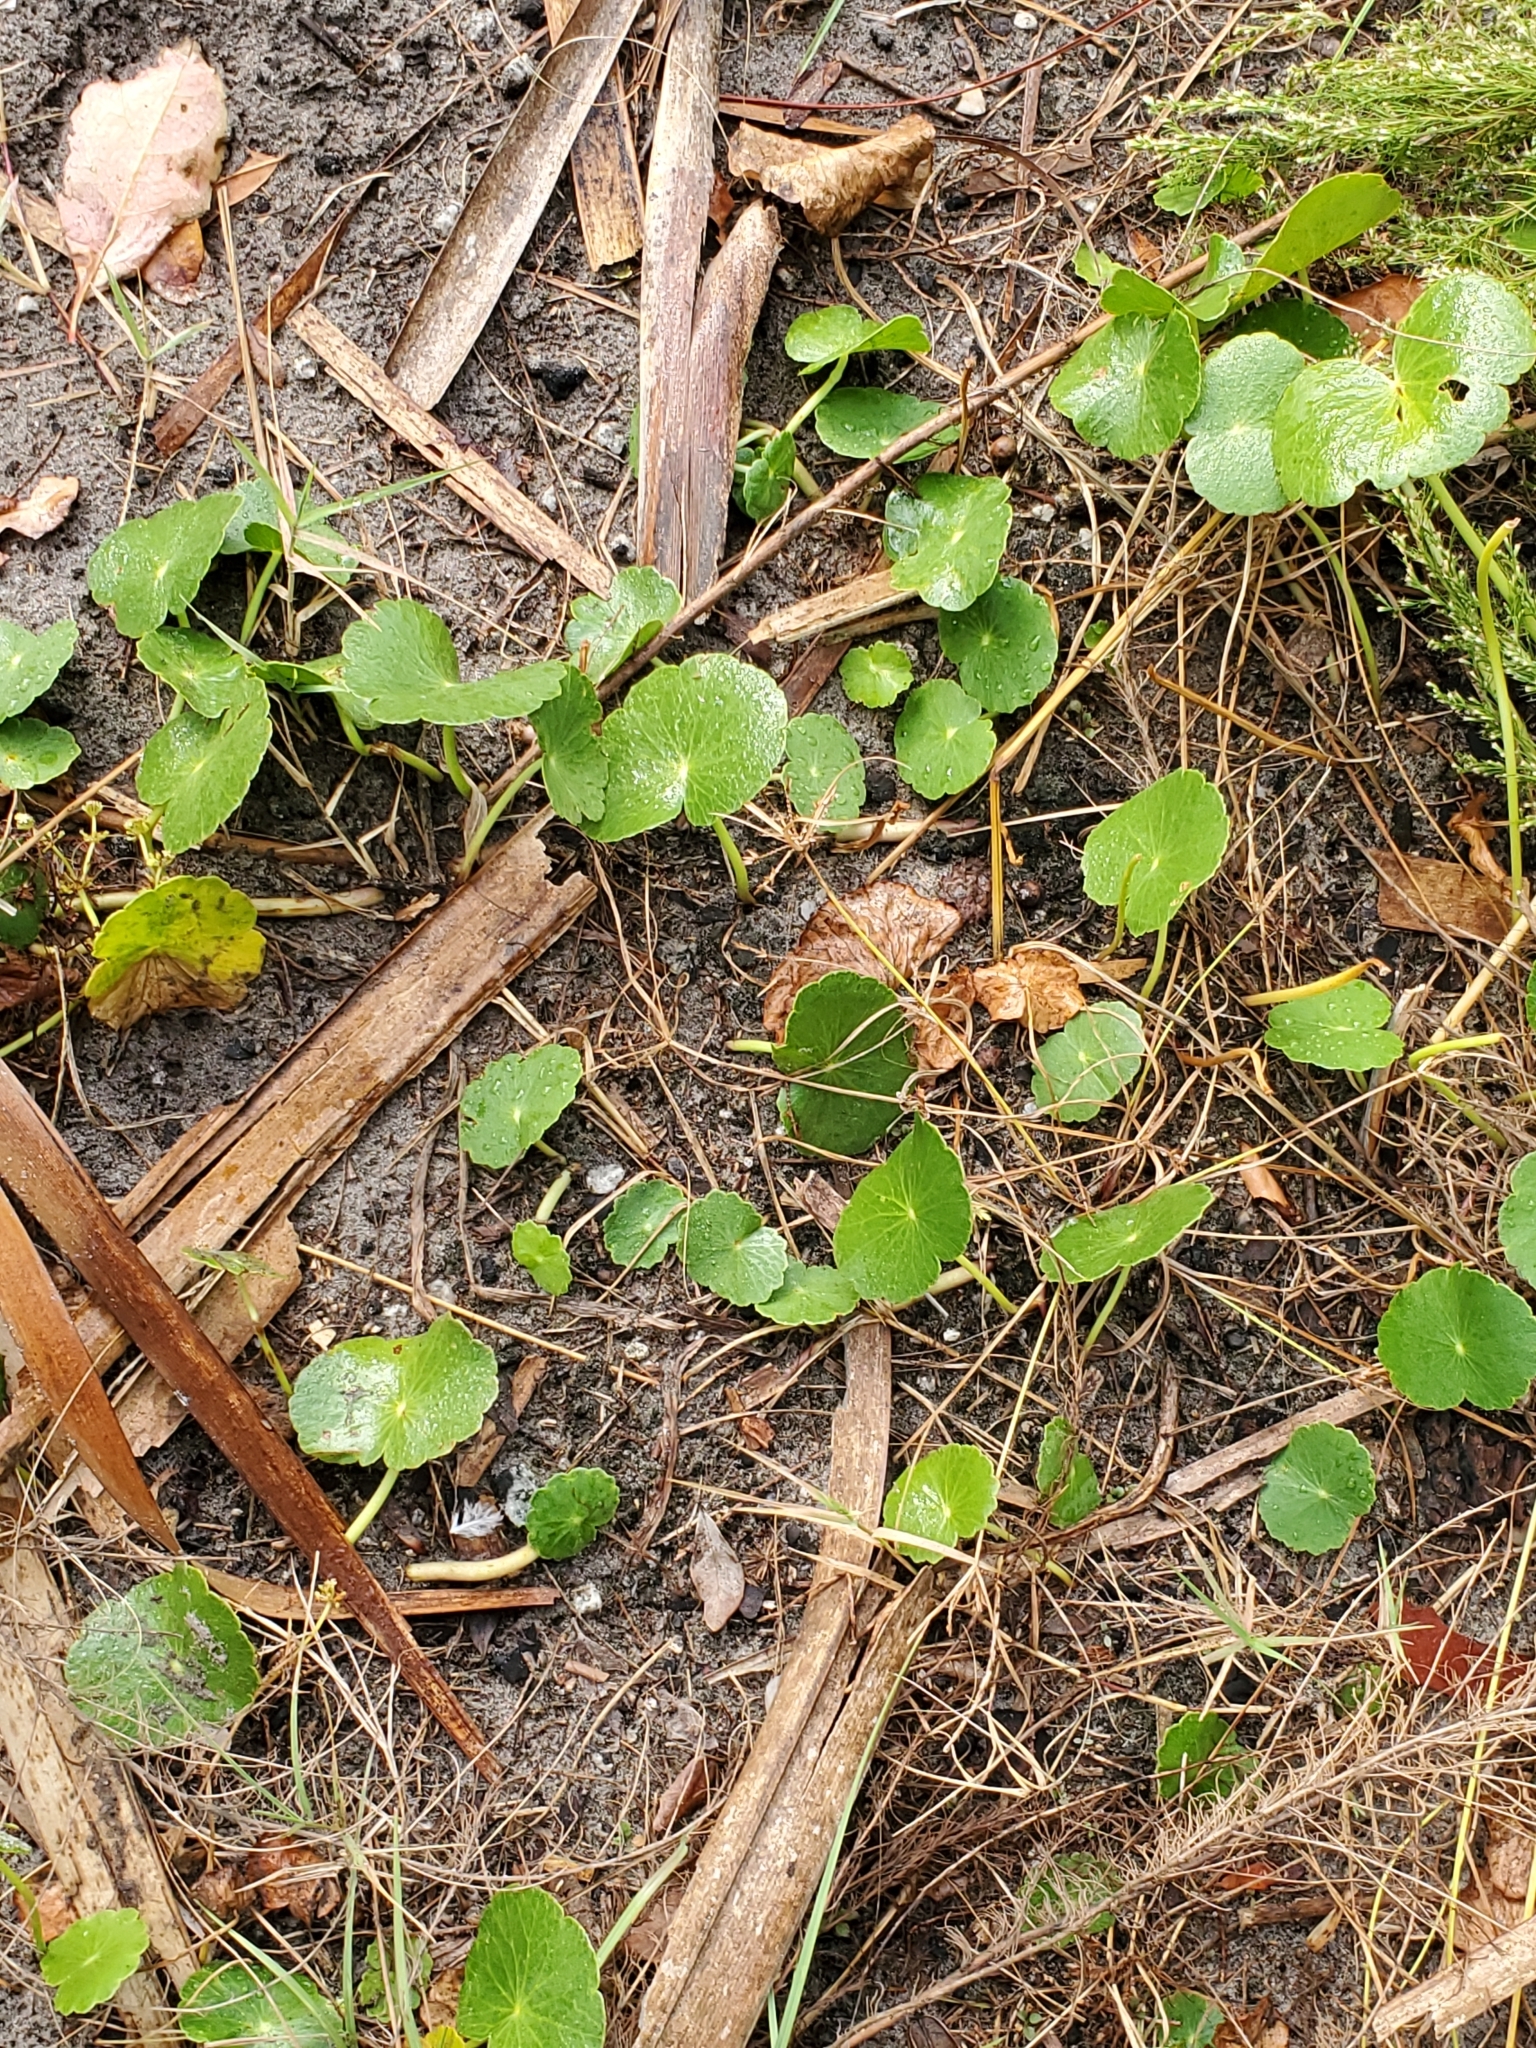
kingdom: Plantae
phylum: Tracheophyta
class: Magnoliopsida
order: Apiales
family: Araliaceae
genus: Hydrocotyle
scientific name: Hydrocotyle bonariensis
